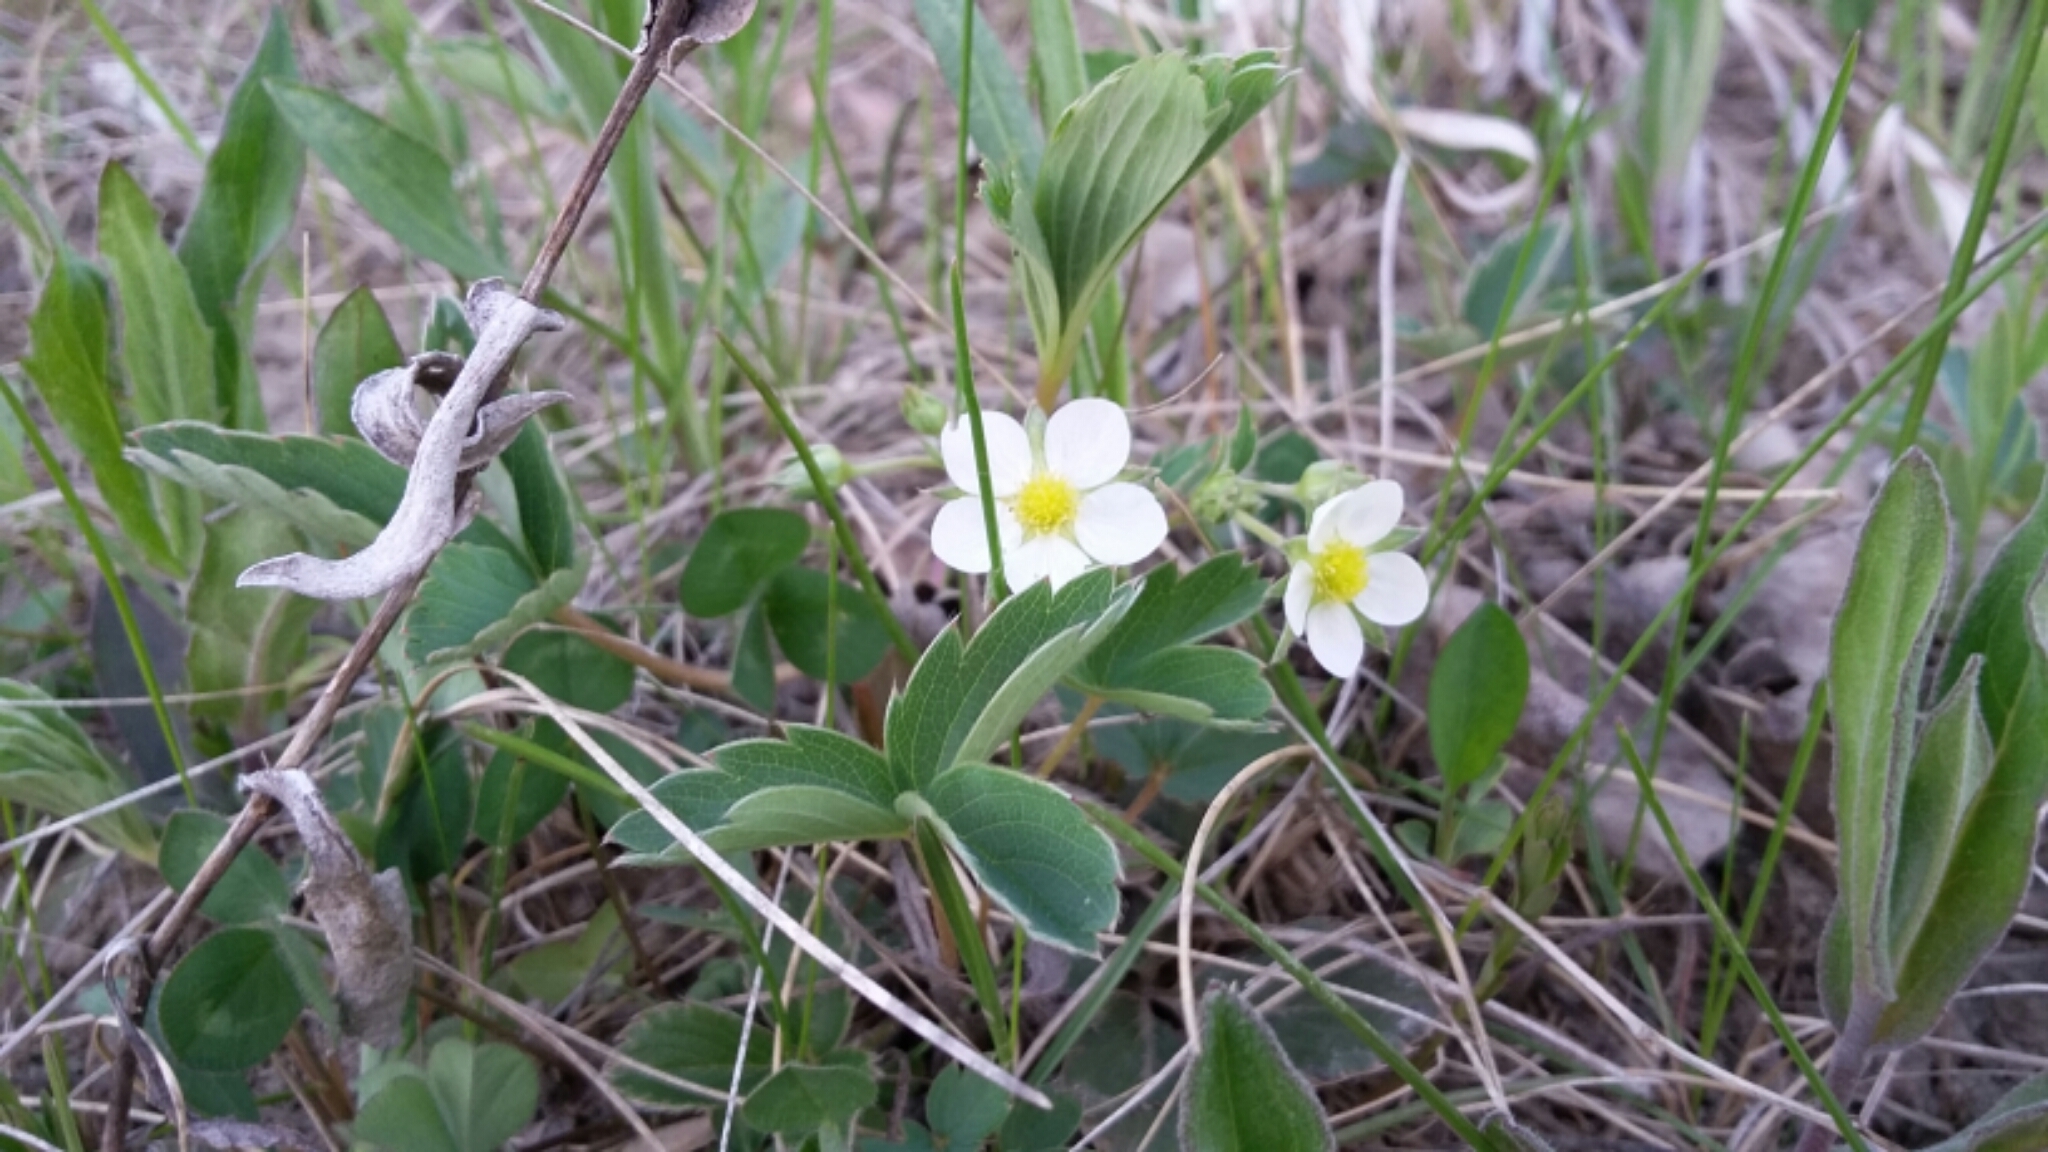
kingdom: Plantae
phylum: Tracheophyta
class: Magnoliopsida
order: Rosales
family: Rosaceae
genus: Fragaria
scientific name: Fragaria virginiana
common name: Thickleaved wild strawberry
